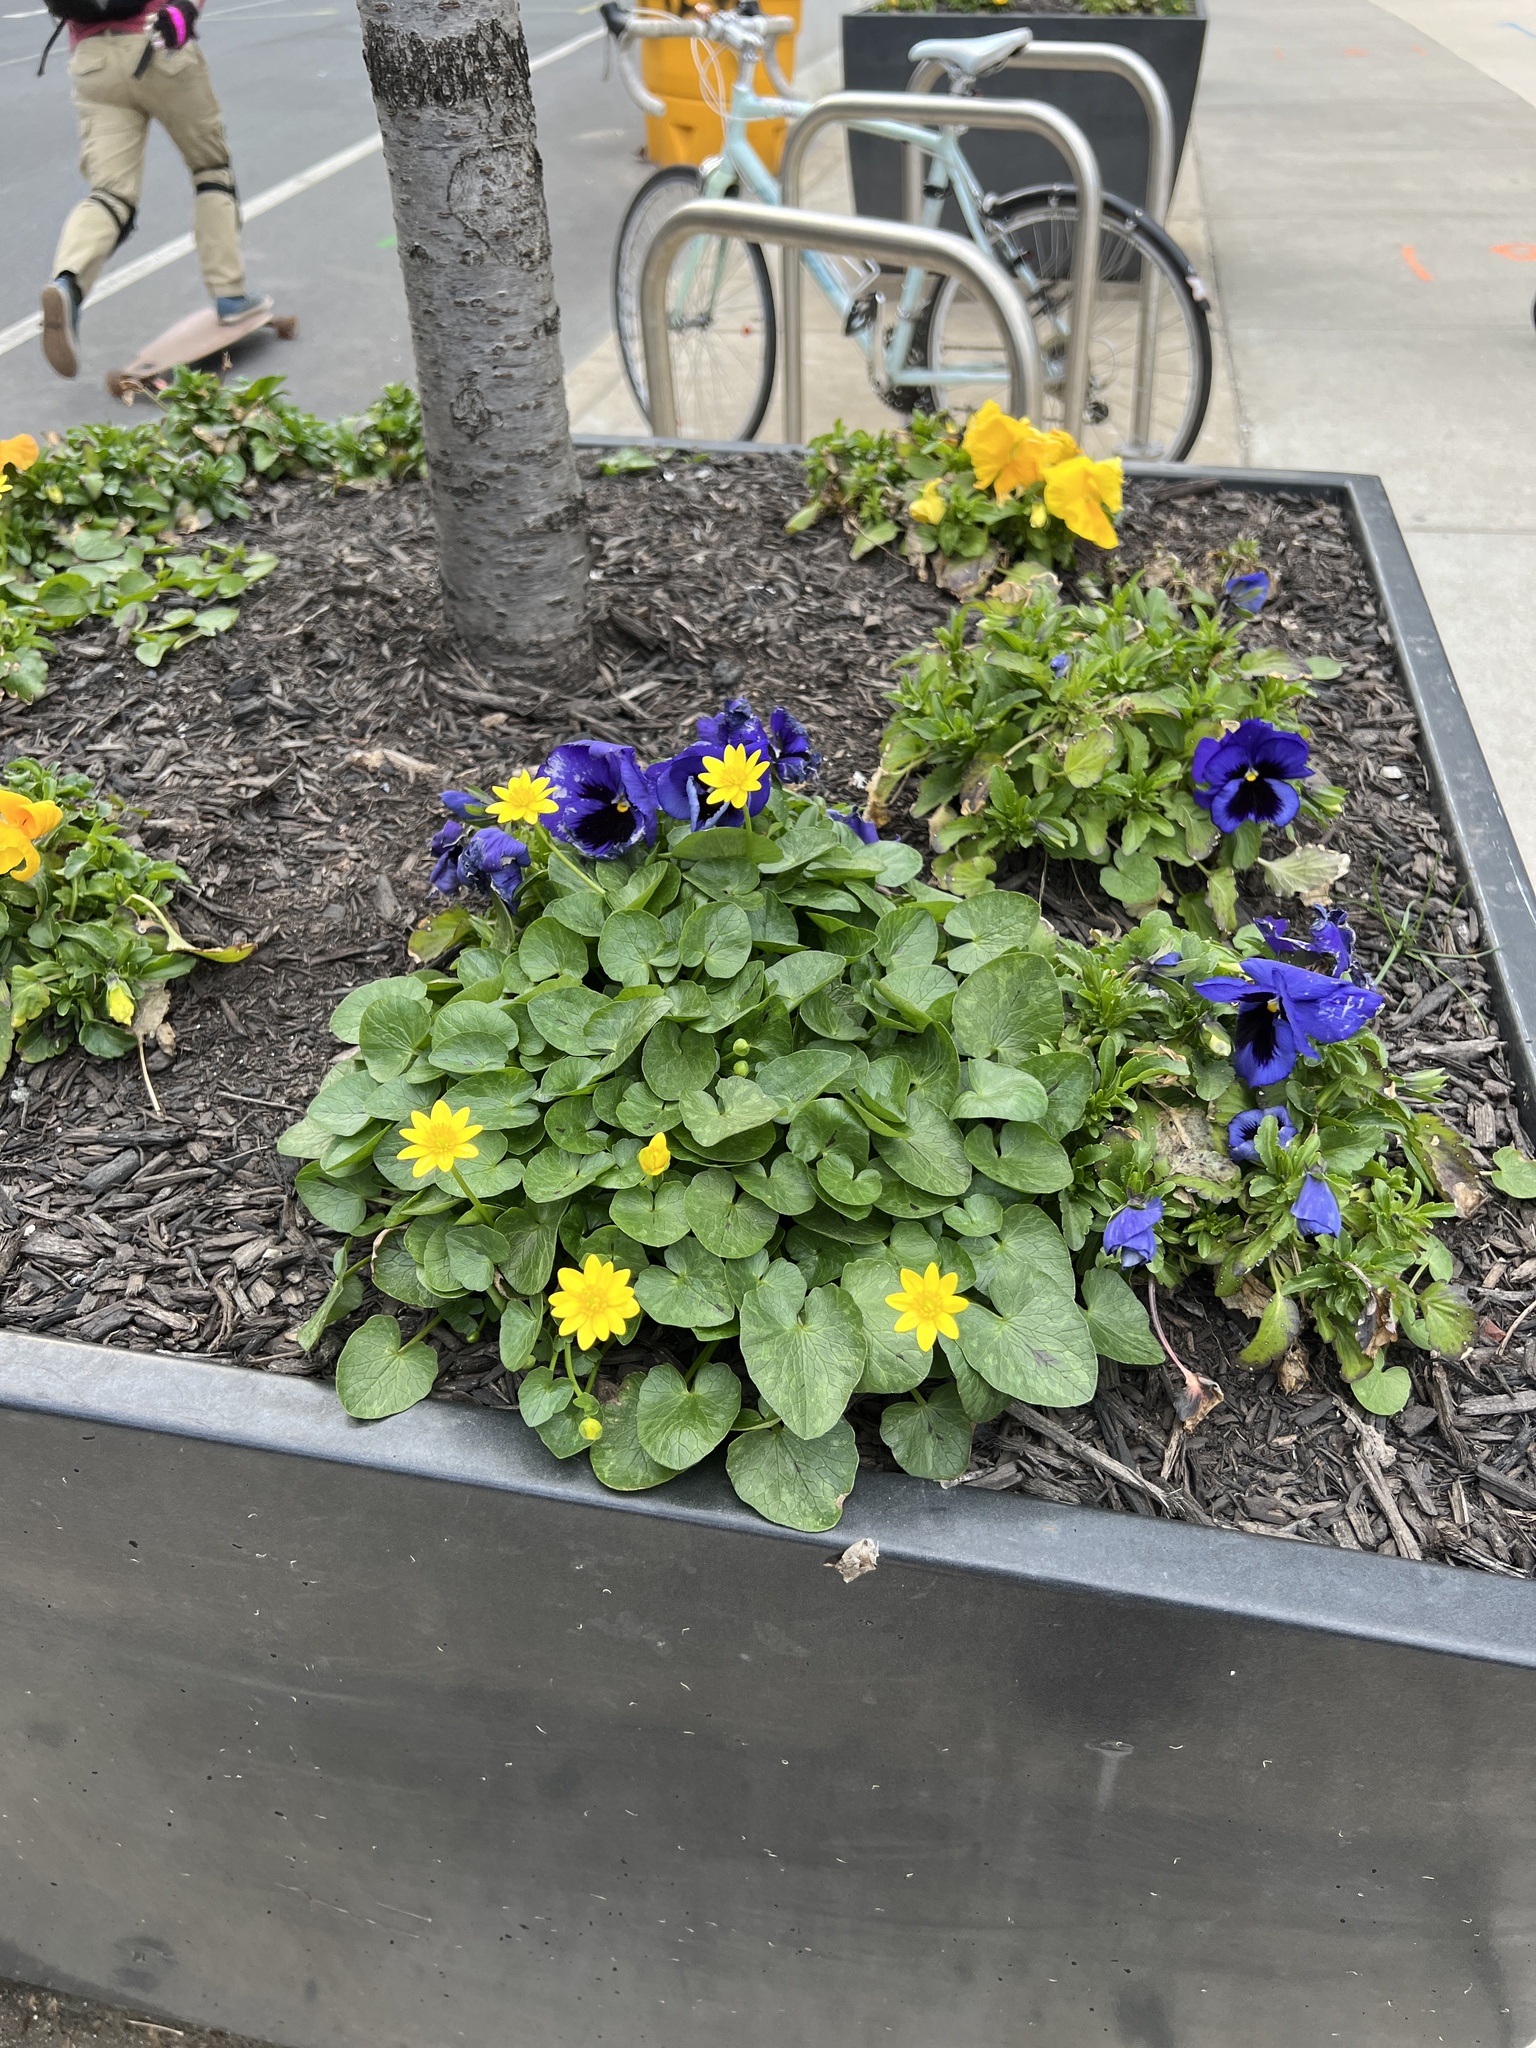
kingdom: Plantae
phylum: Tracheophyta
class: Magnoliopsida
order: Ranunculales
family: Ranunculaceae
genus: Ficaria
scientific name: Ficaria verna
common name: Lesser celandine
